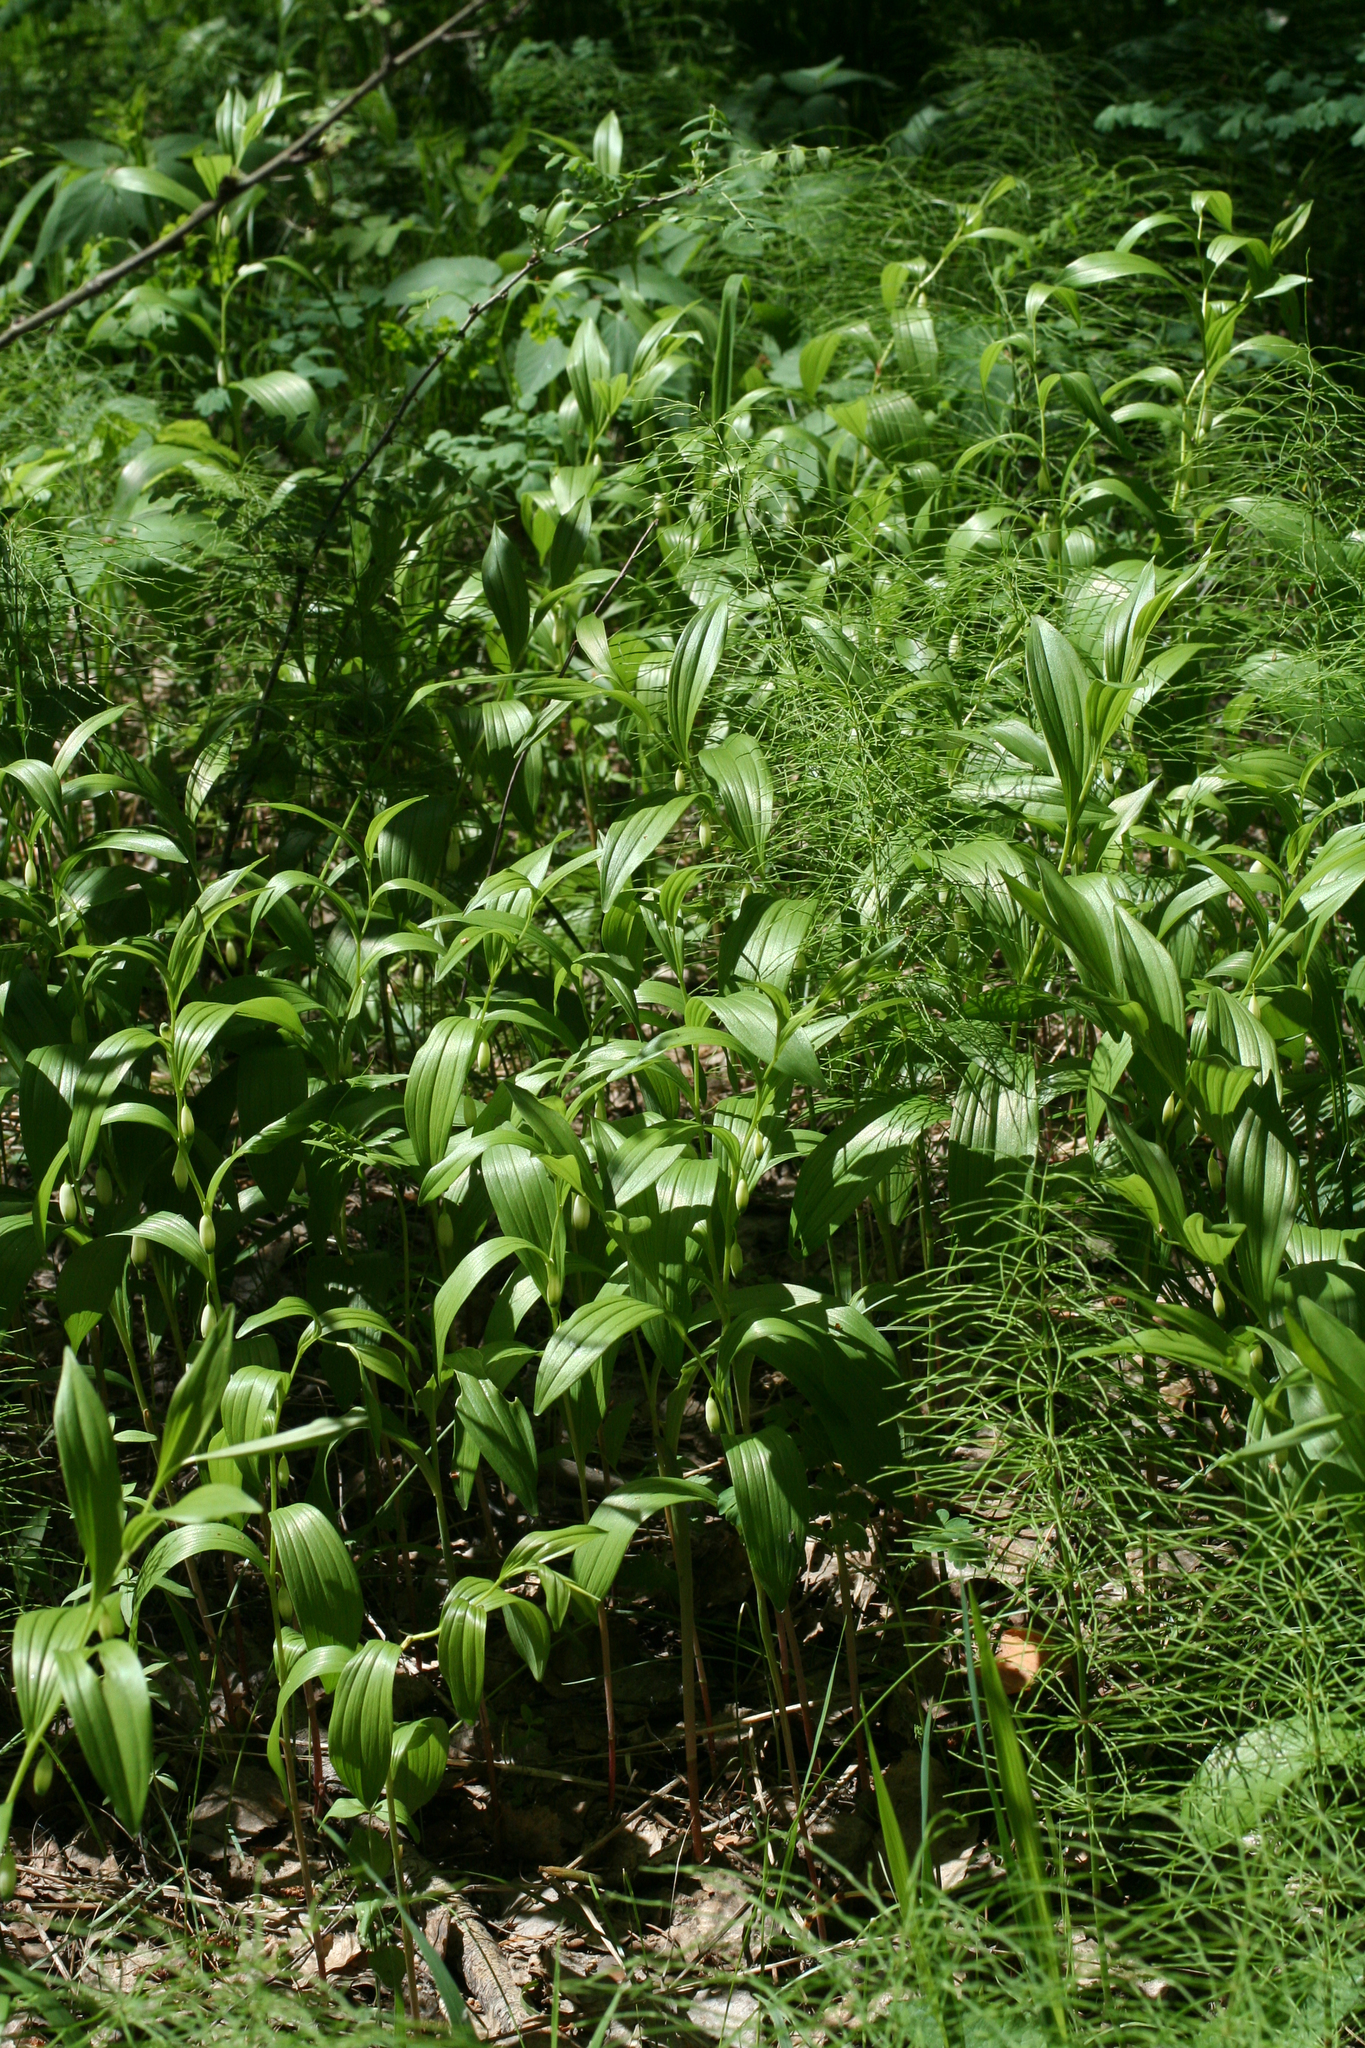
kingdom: Plantae
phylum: Tracheophyta
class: Liliopsida
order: Asparagales
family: Asparagaceae
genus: Polygonatum
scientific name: Polygonatum humile
